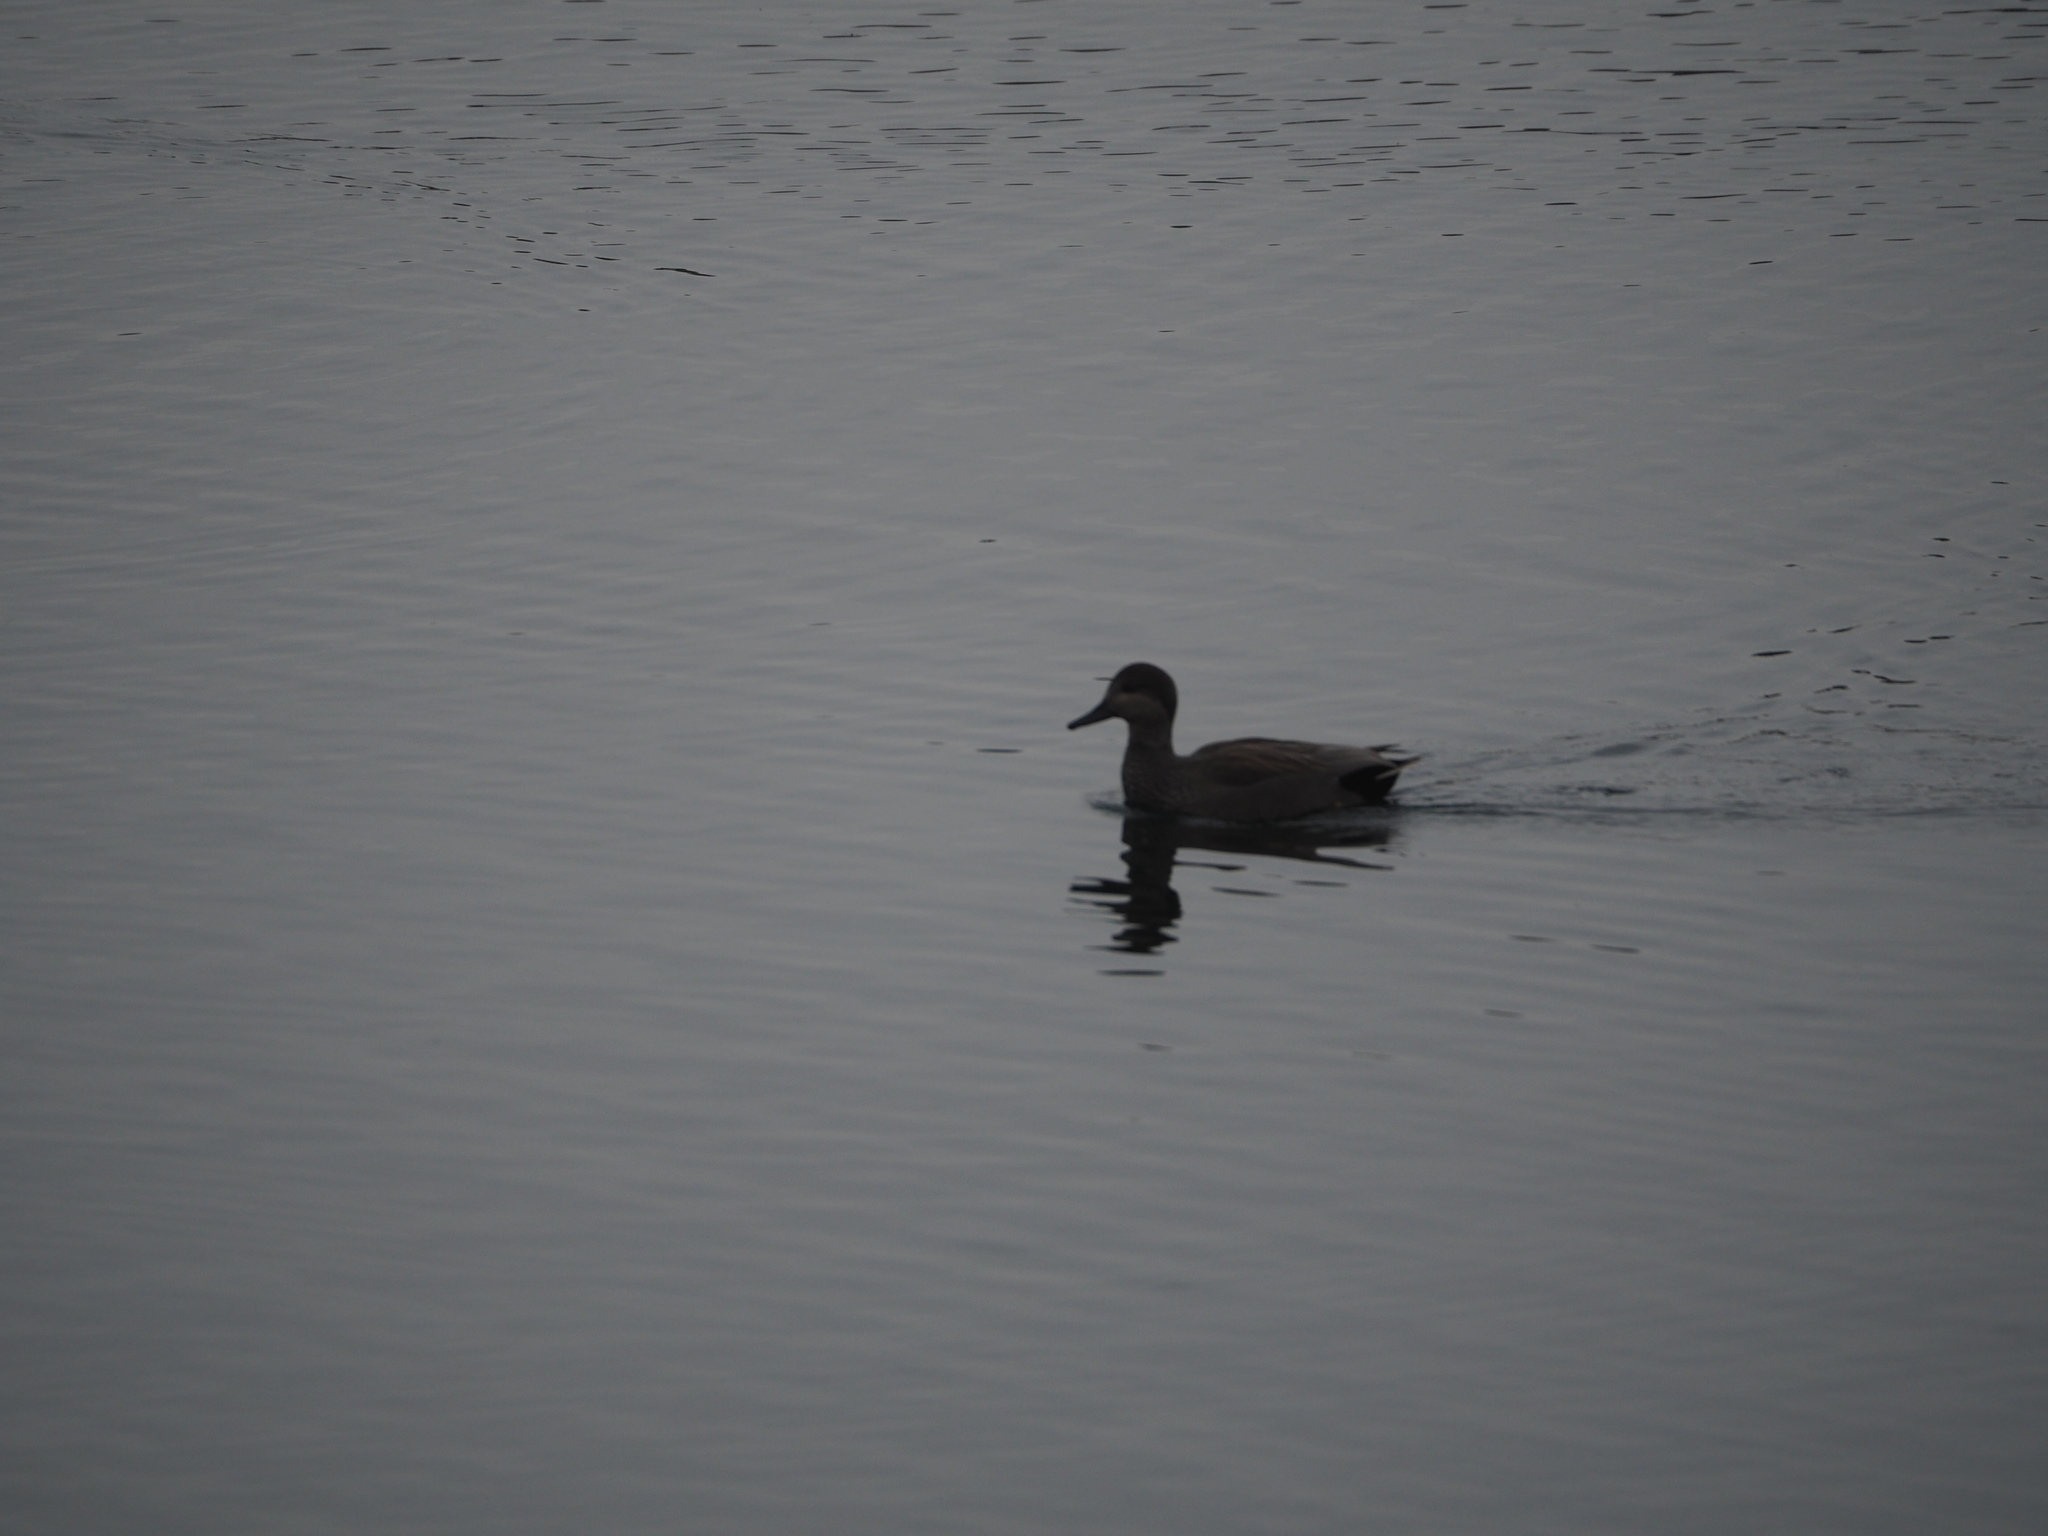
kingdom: Animalia
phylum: Chordata
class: Aves
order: Anseriformes
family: Anatidae
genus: Mareca
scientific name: Mareca strepera
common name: Gadwall
